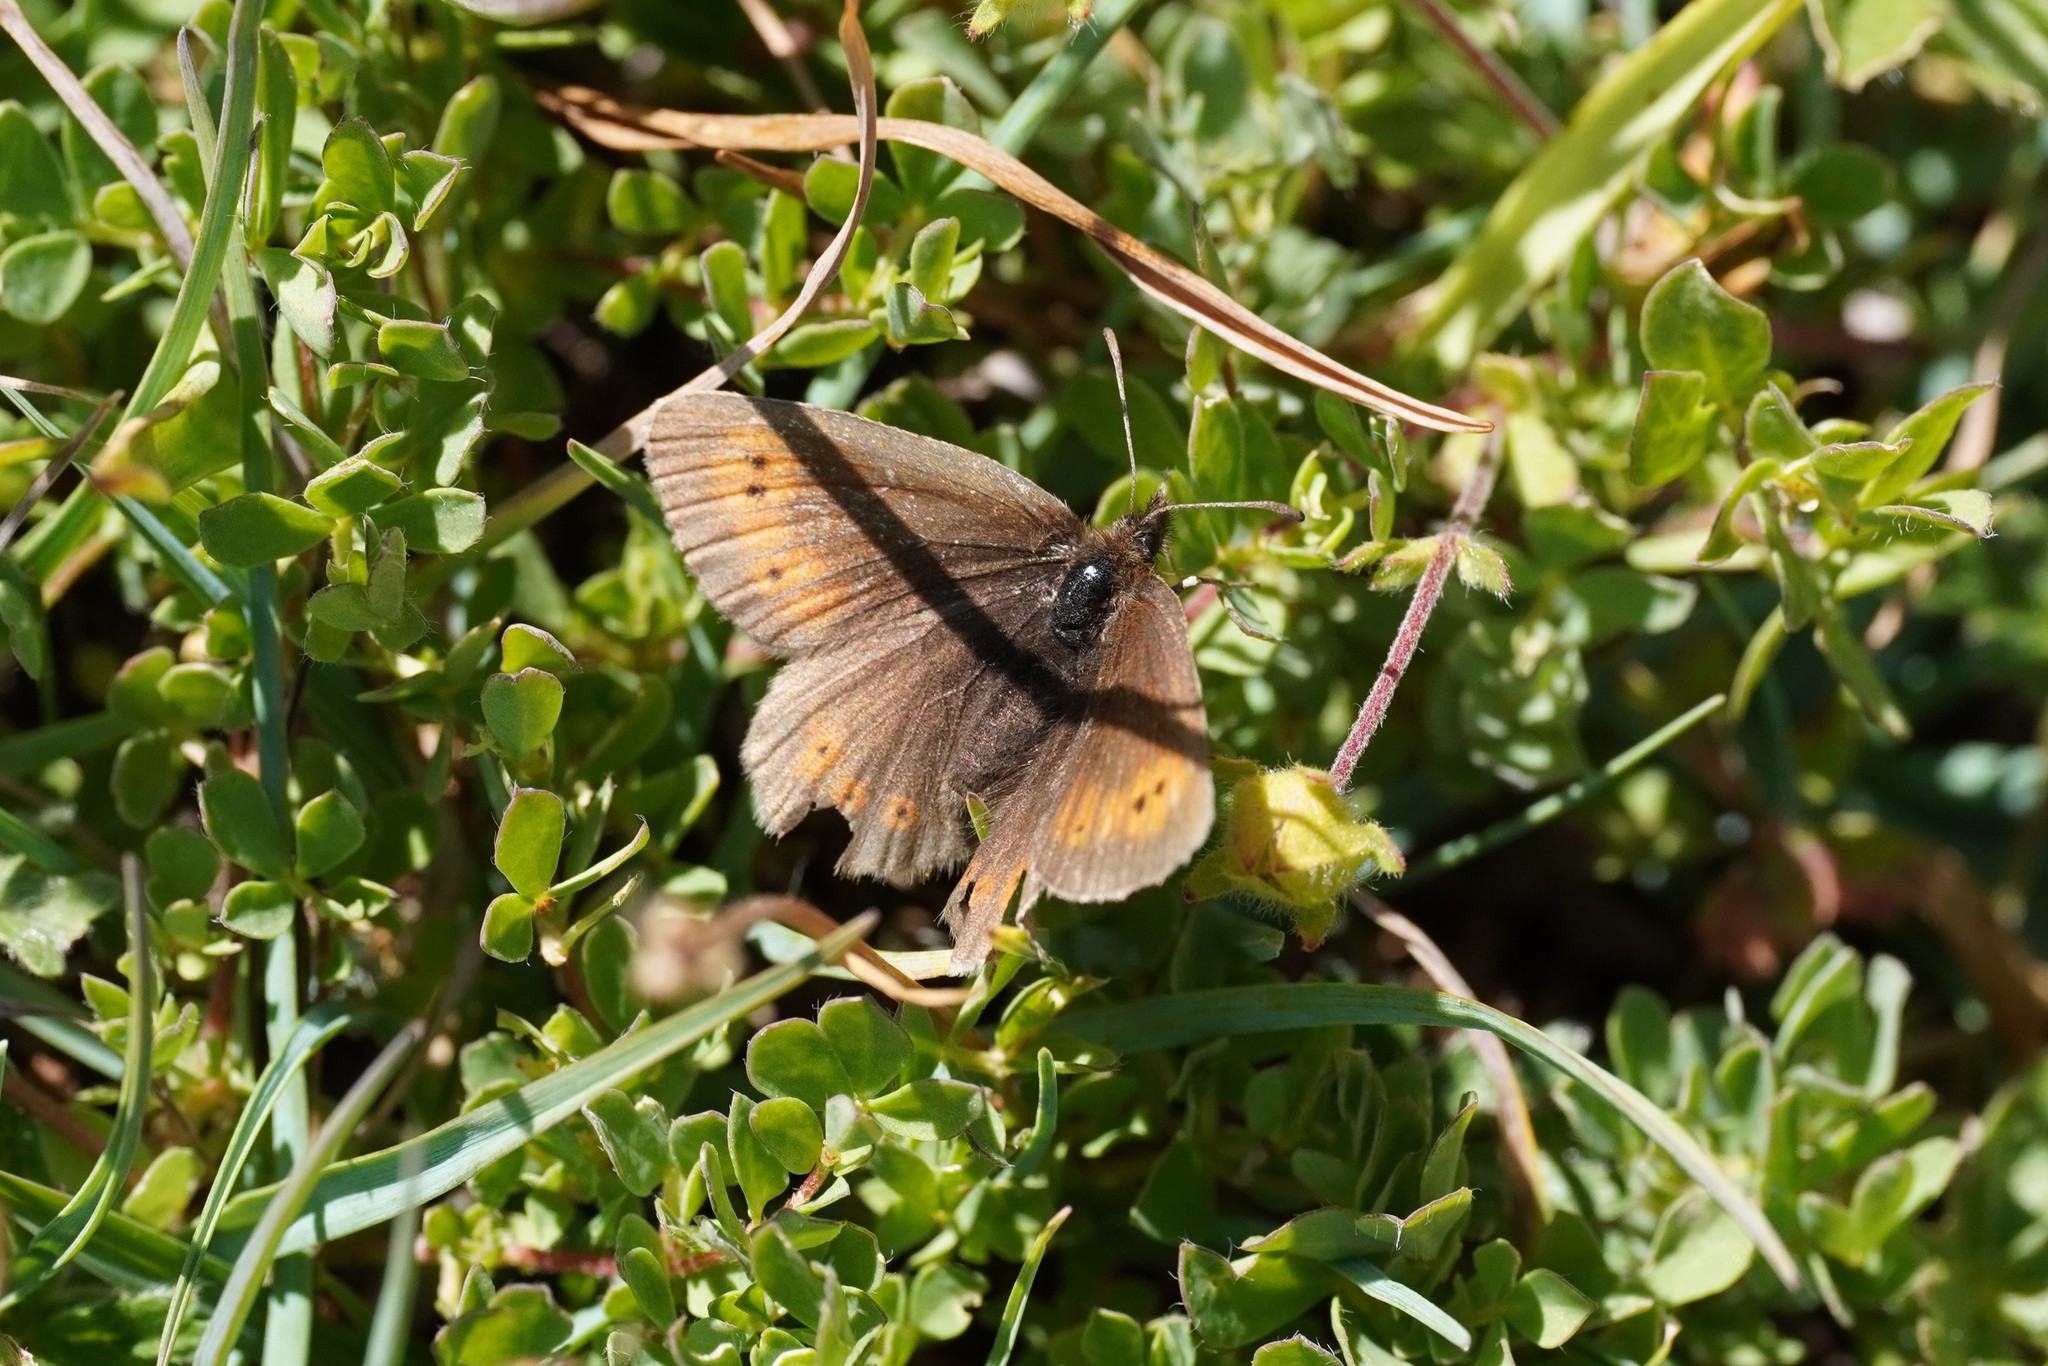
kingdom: Animalia
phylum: Arthropoda
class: Insecta
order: Lepidoptera
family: Nymphalidae
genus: Erebia
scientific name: Erebia epiphron
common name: Mountain ringlet
